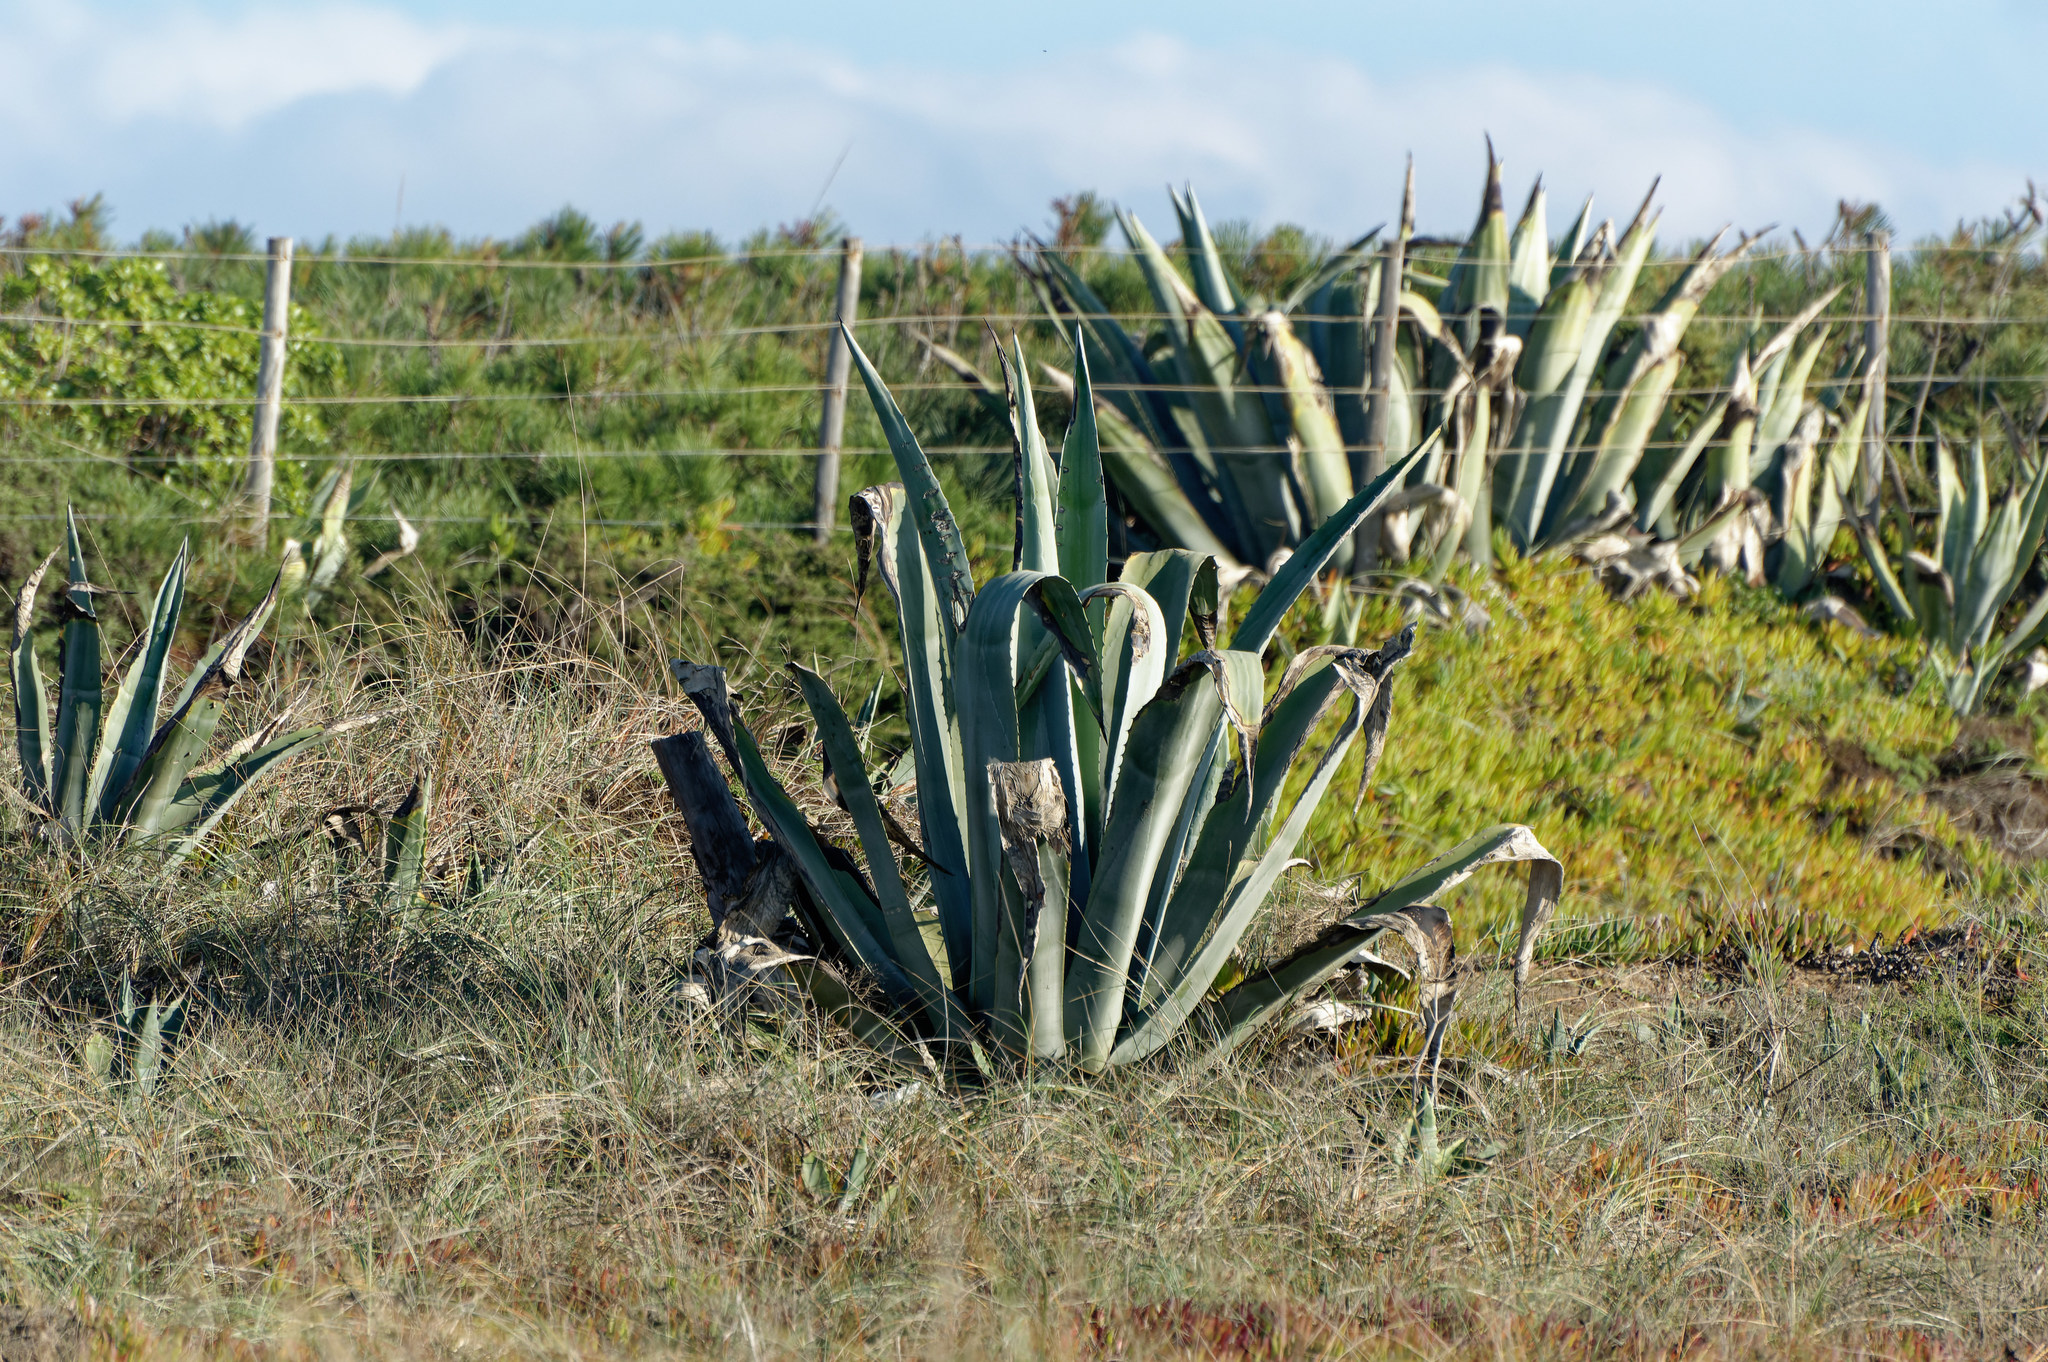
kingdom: Plantae
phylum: Tracheophyta
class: Liliopsida
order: Asparagales
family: Asparagaceae
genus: Agave
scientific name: Agave americana
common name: Centuryplant
